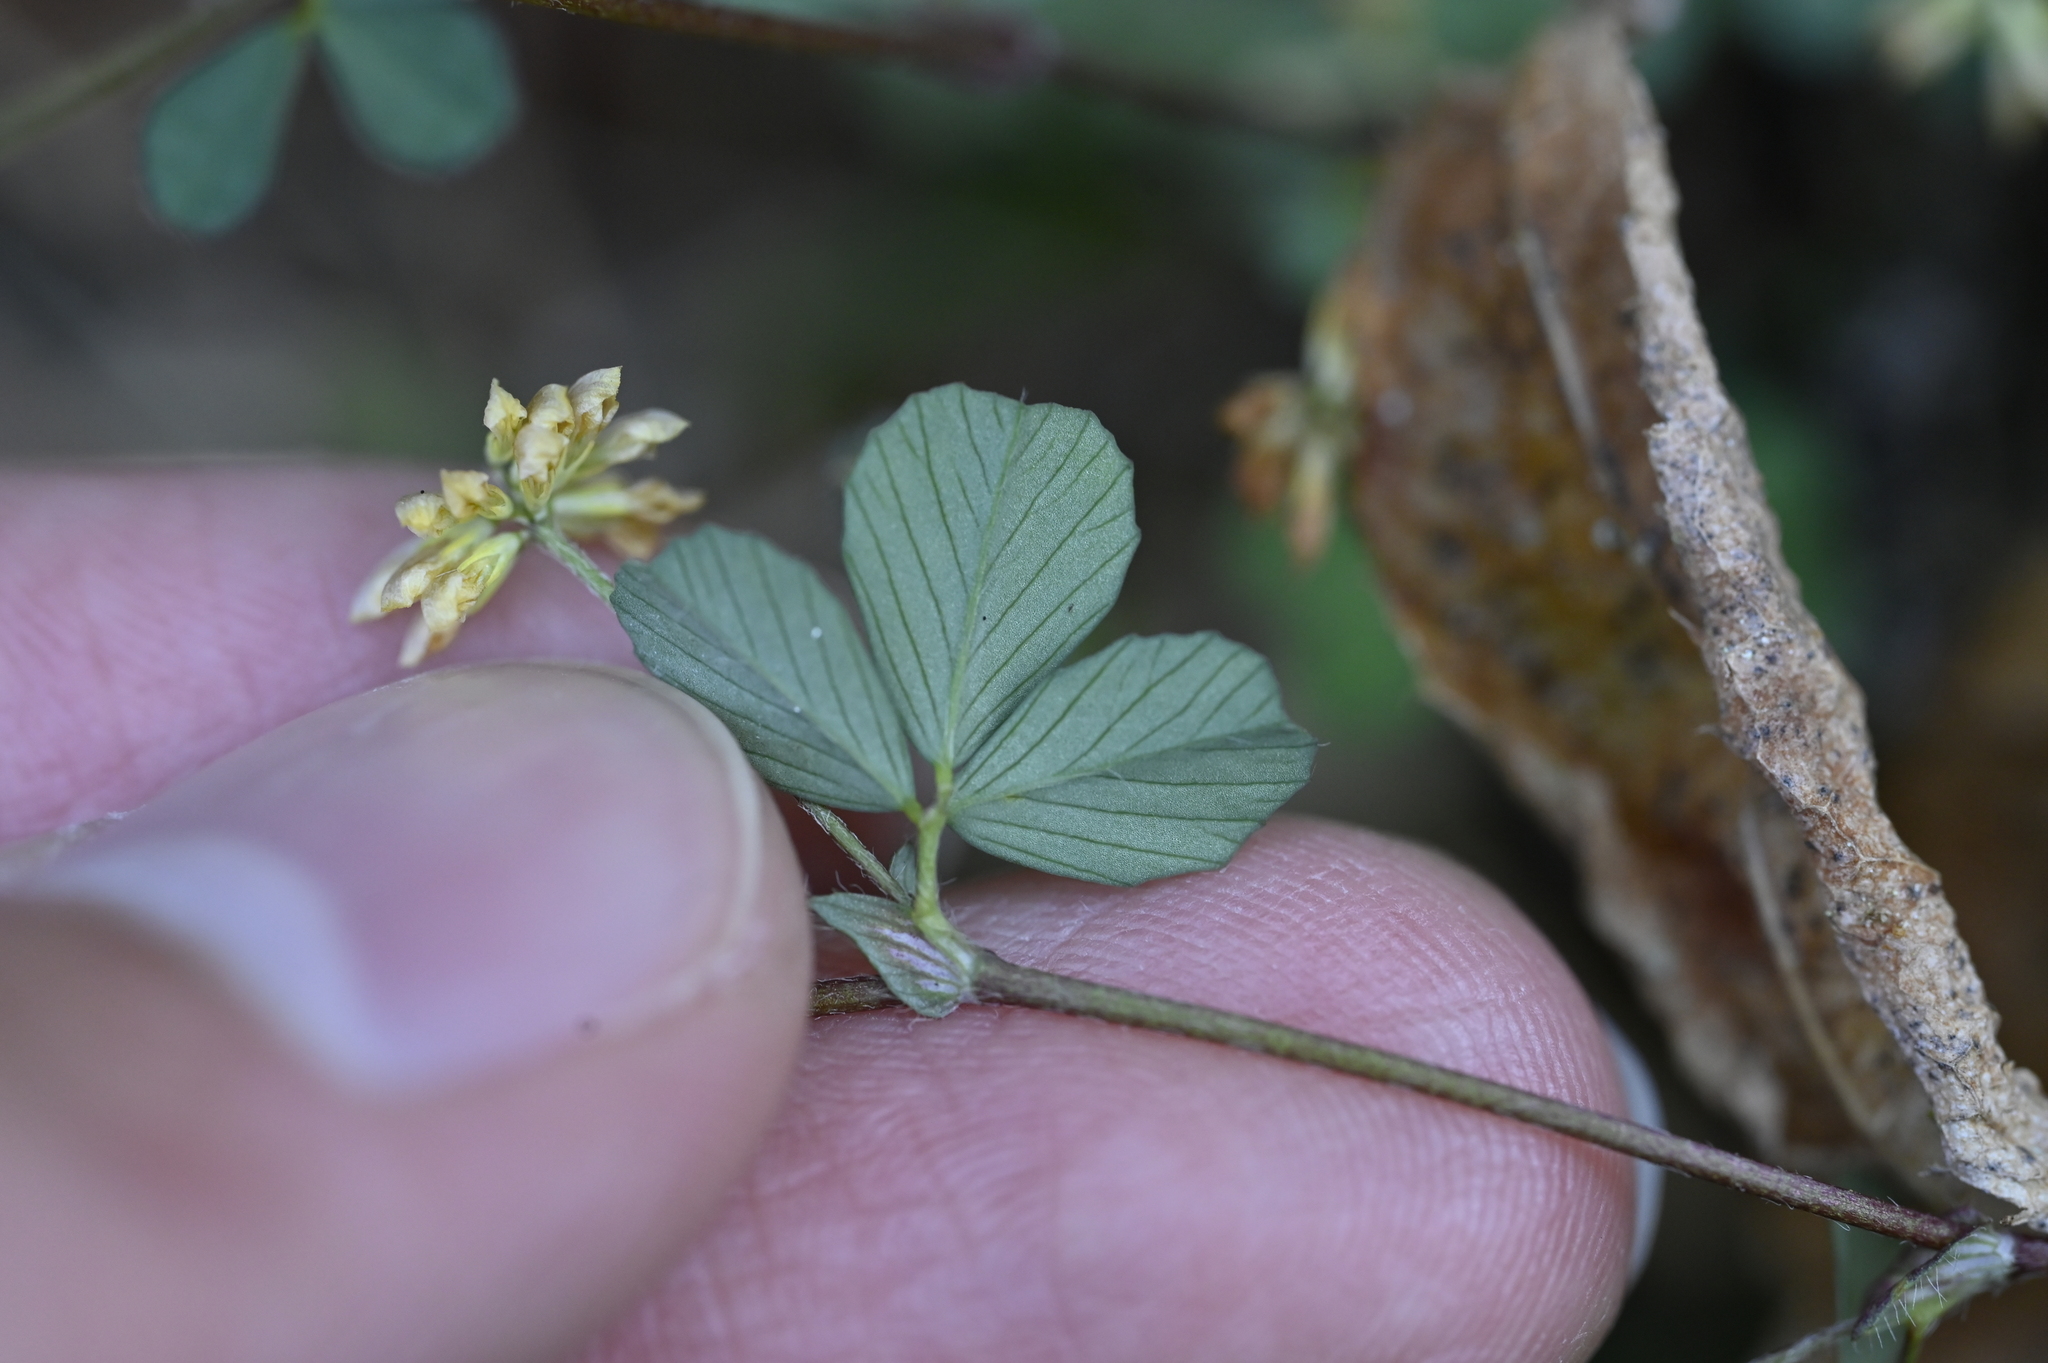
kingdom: Plantae
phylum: Tracheophyta
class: Magnoliopsida
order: Fabales
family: Fabaceae
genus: Trifolium
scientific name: Trifolium dubium
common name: Suckling clover
